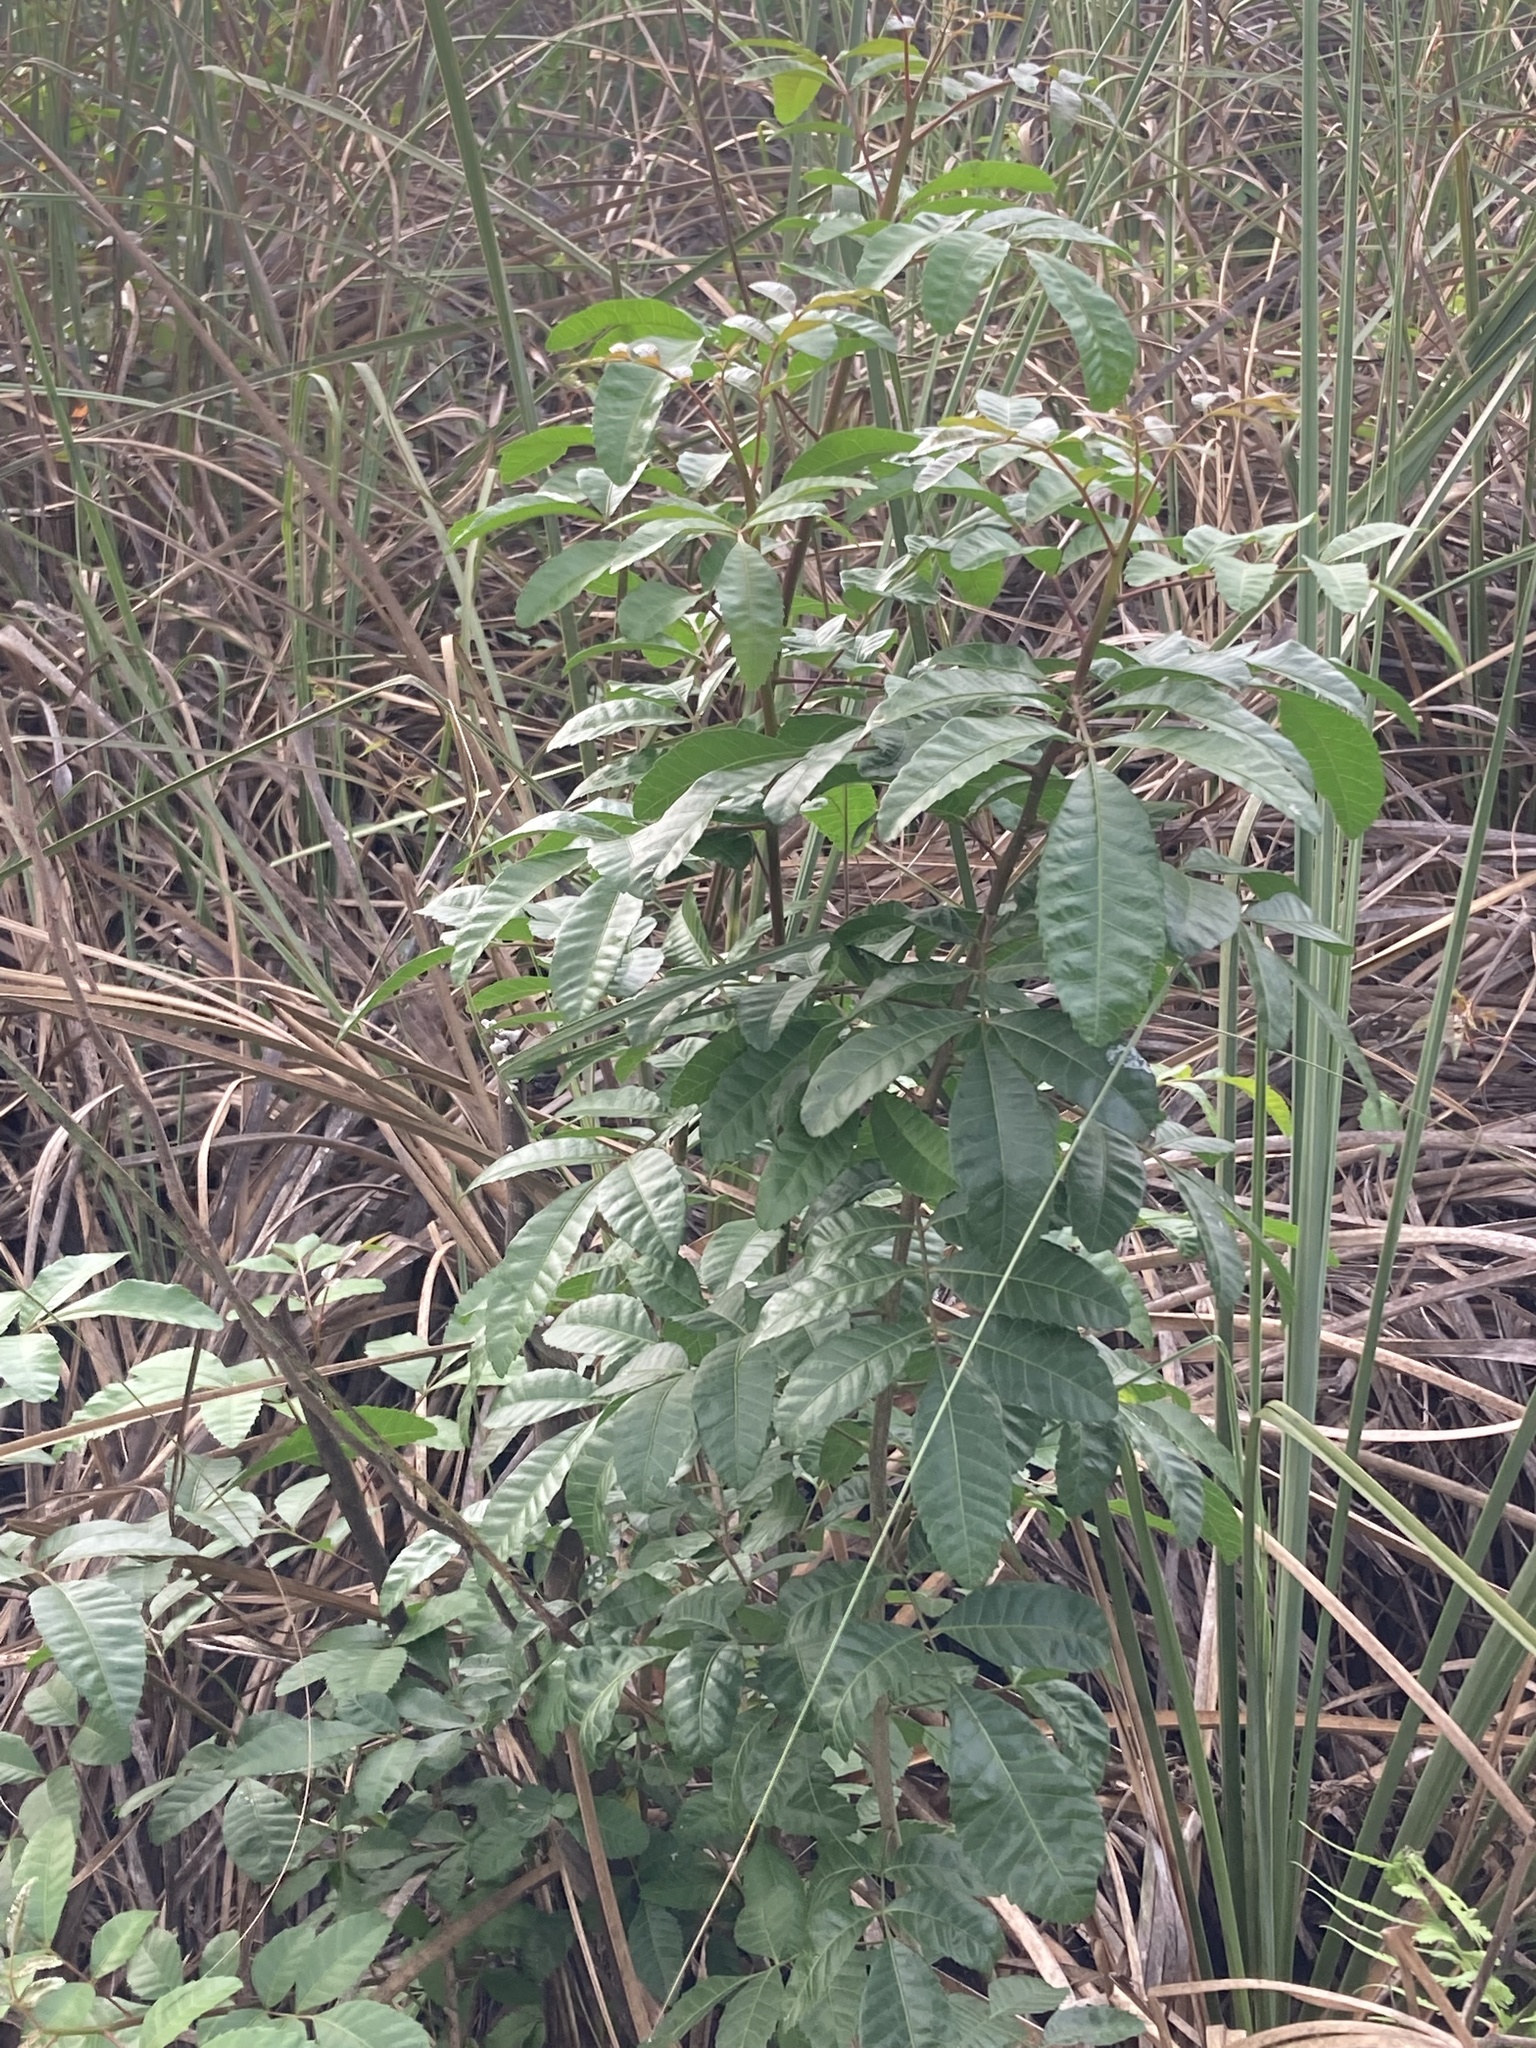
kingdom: Plantae
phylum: Tracheophyta
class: Magnoliopsida
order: Sapindales
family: Anacardiaceae
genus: Schinus
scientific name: Schinus terebinthifolia
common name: Brazilian peppertree
